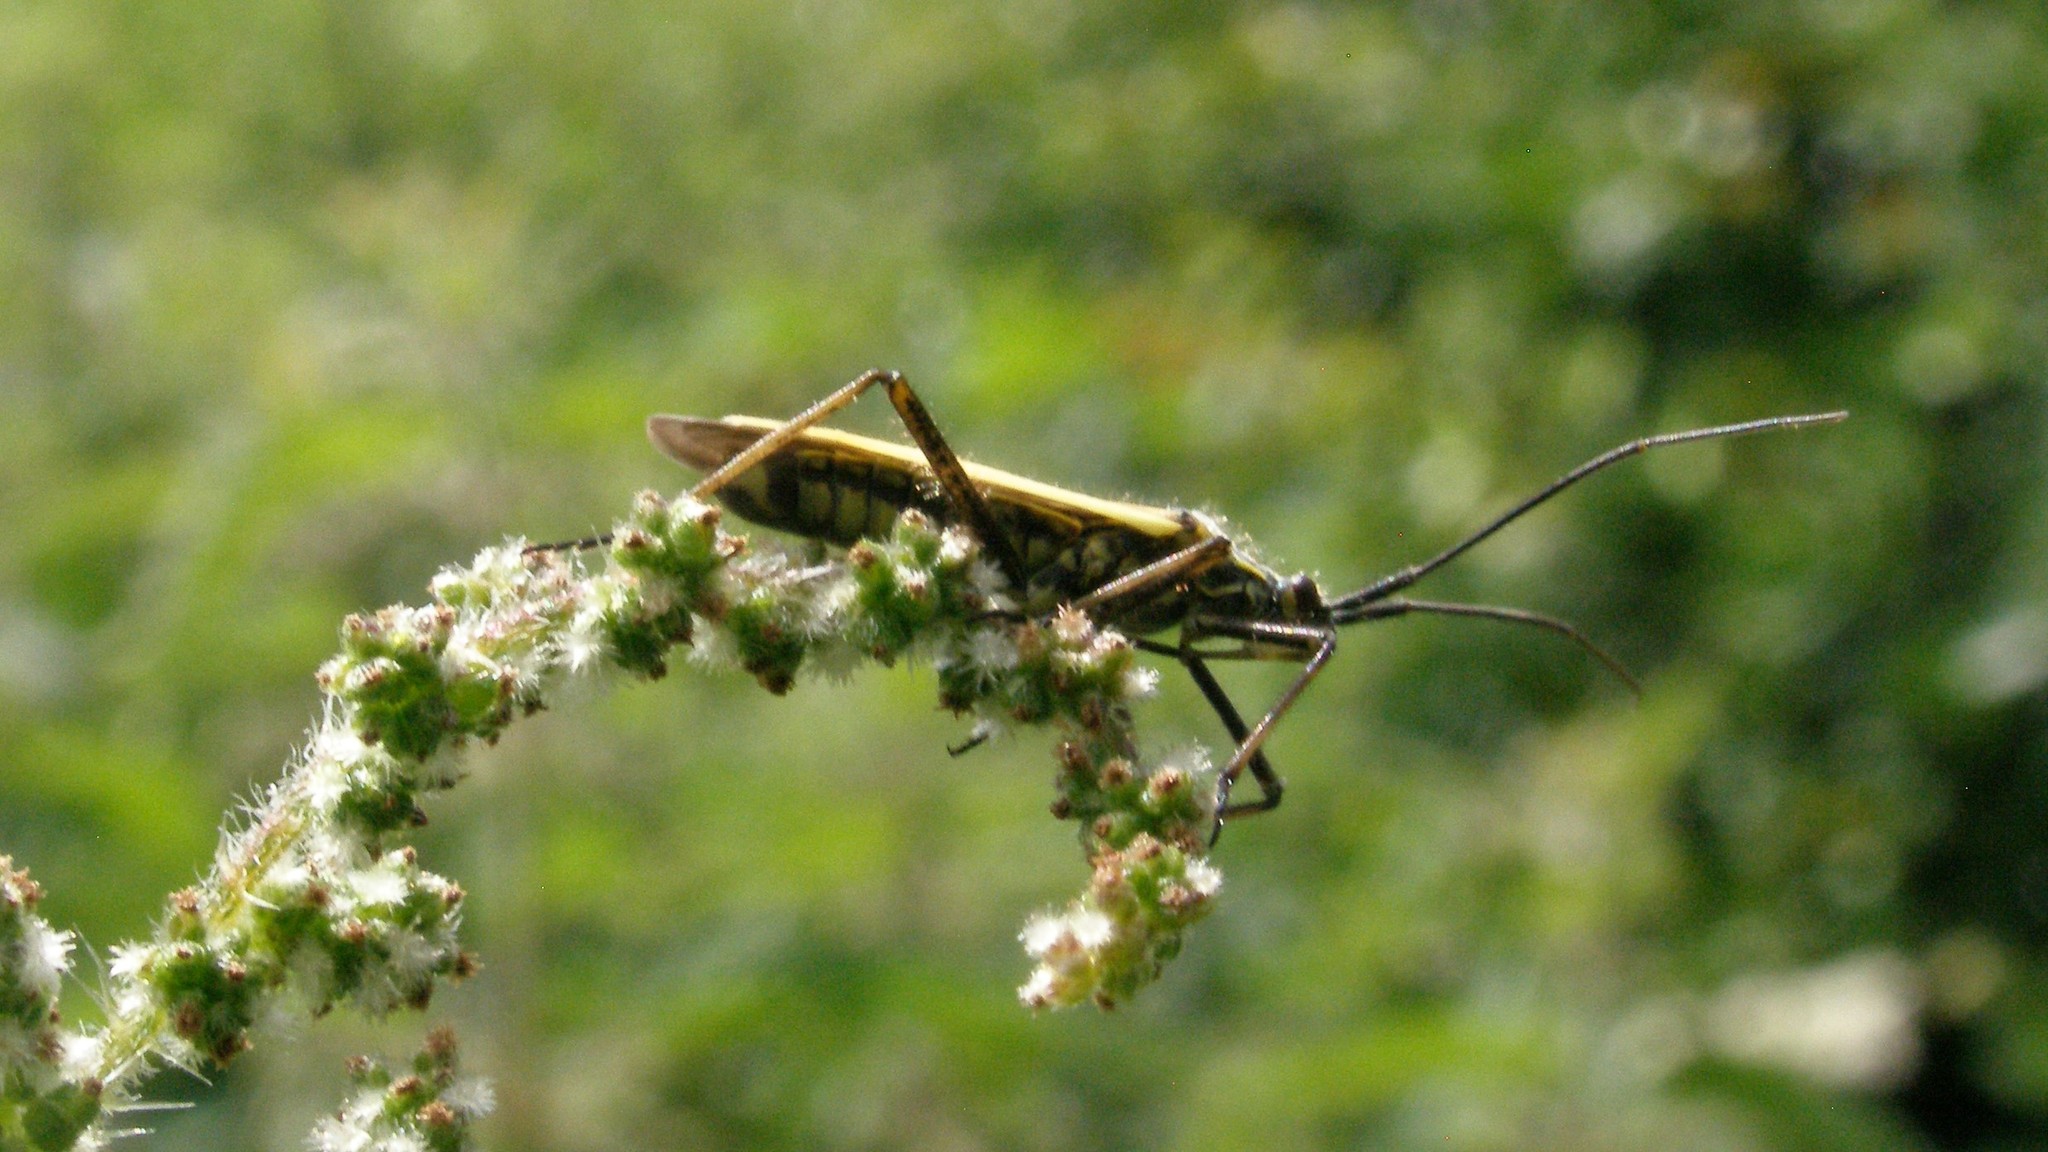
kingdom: Animalia
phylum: Arthropoda
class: Insecta
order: Hemiptera
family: Miridae
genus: Leptopterna
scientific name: Leptopterna dolabrata
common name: Meadow plant bug
